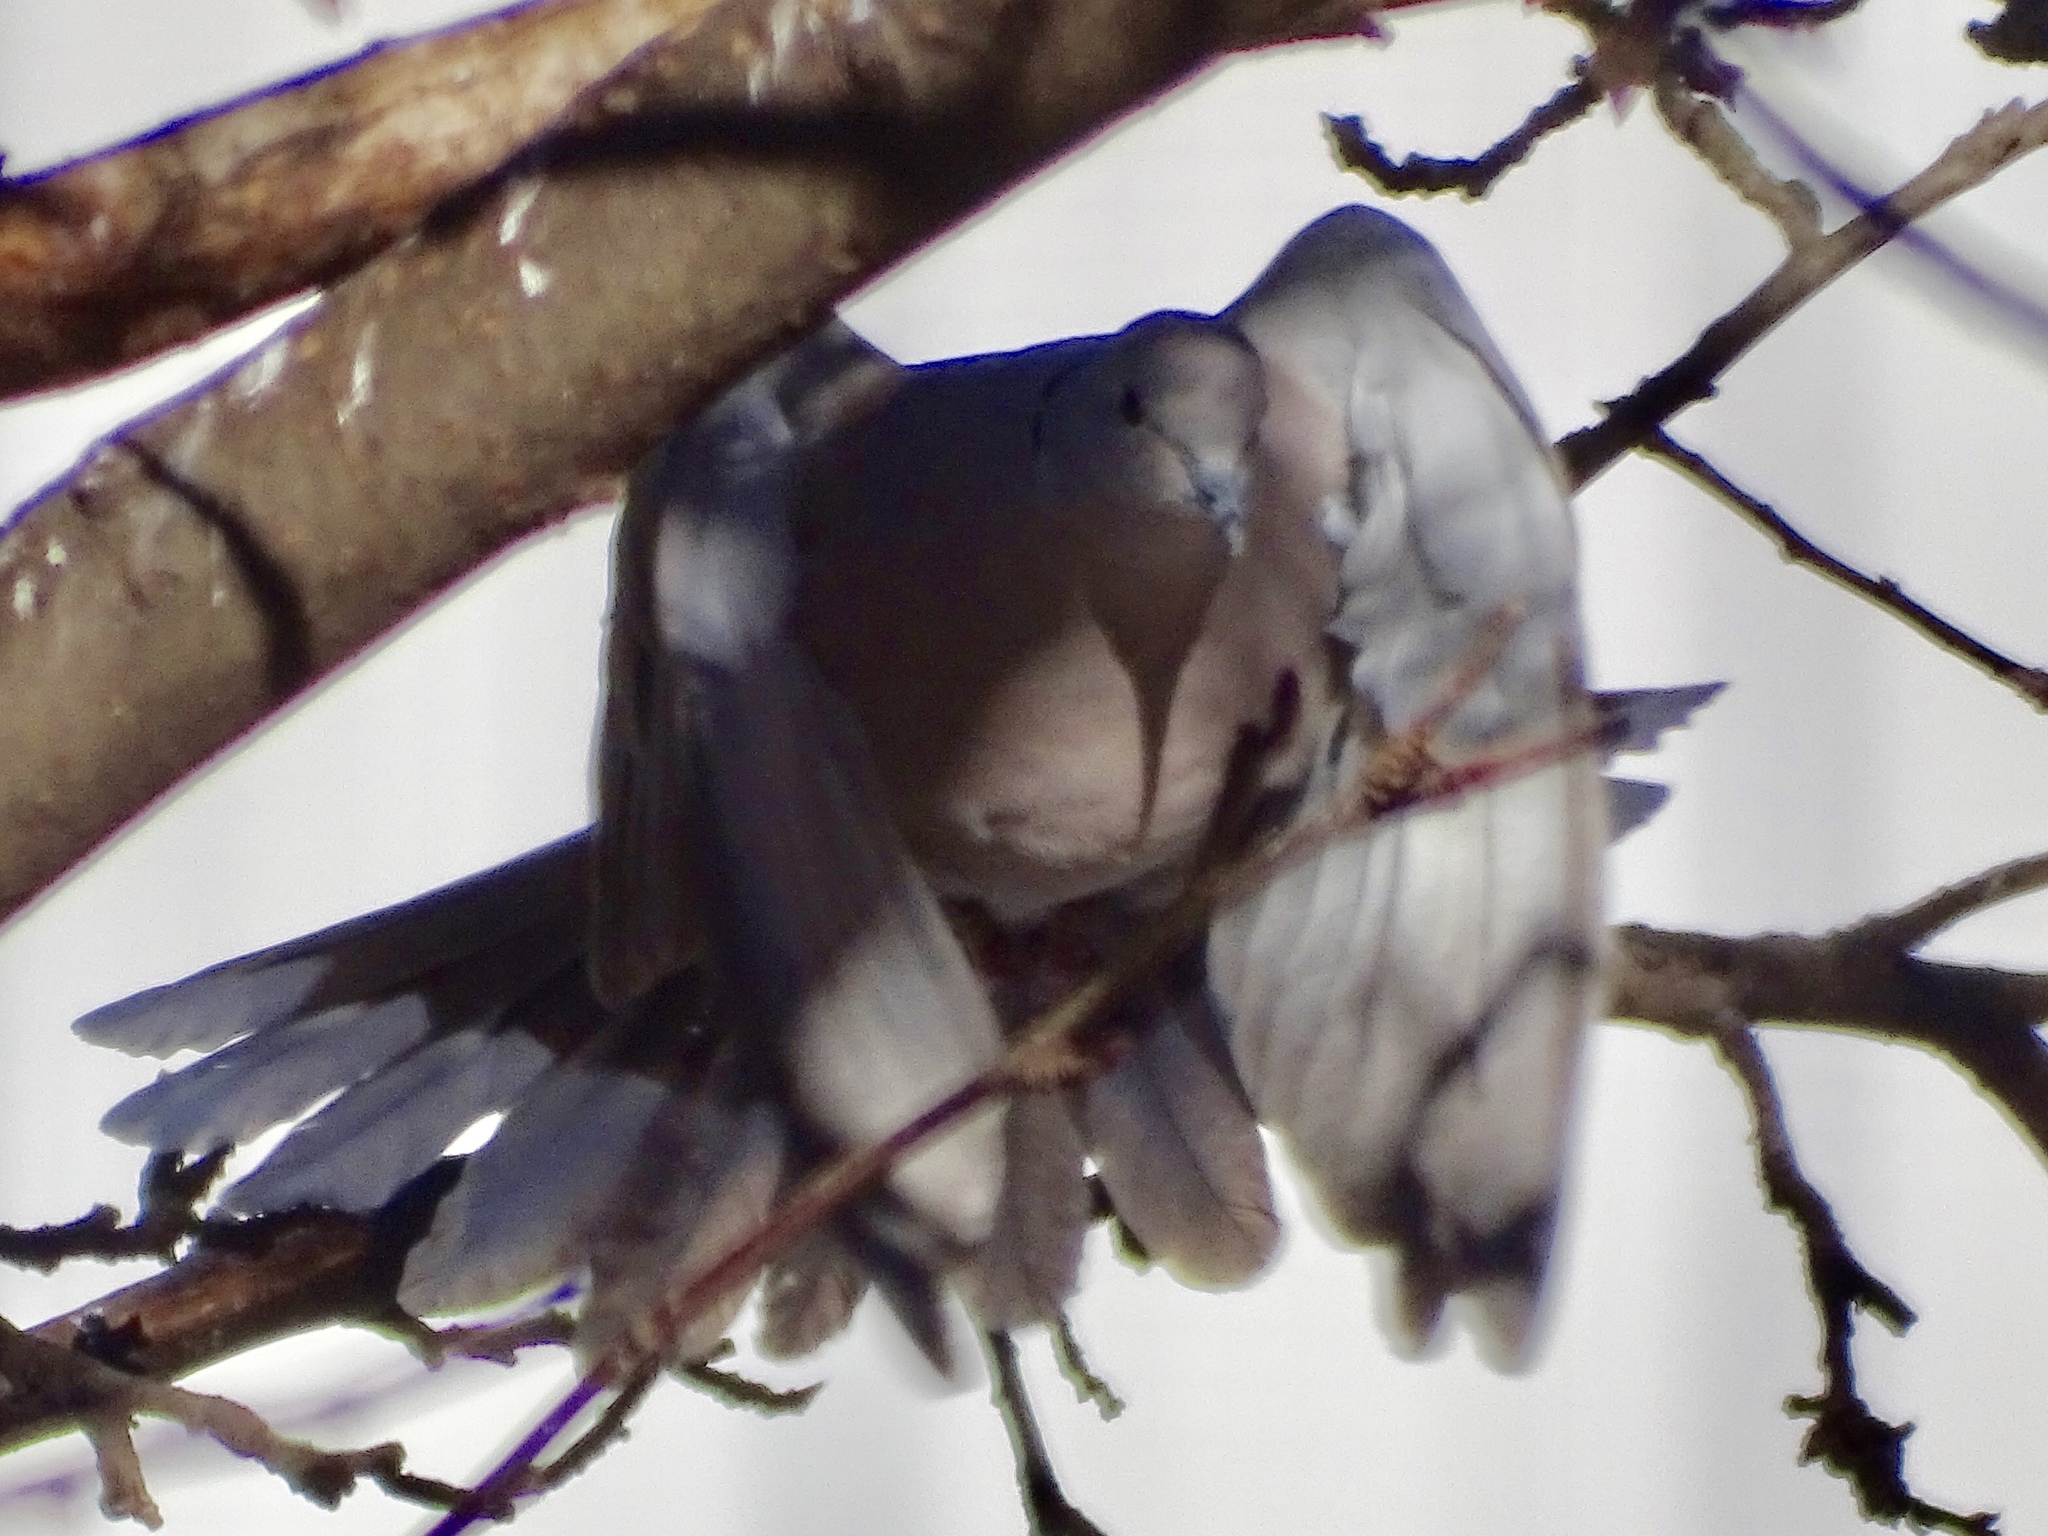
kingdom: Animalia
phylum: Chordata
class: Aves
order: Columbiformes
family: Columbidae
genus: Streptopelia
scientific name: Streptopelia decaocto
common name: Eurasian collared dove
